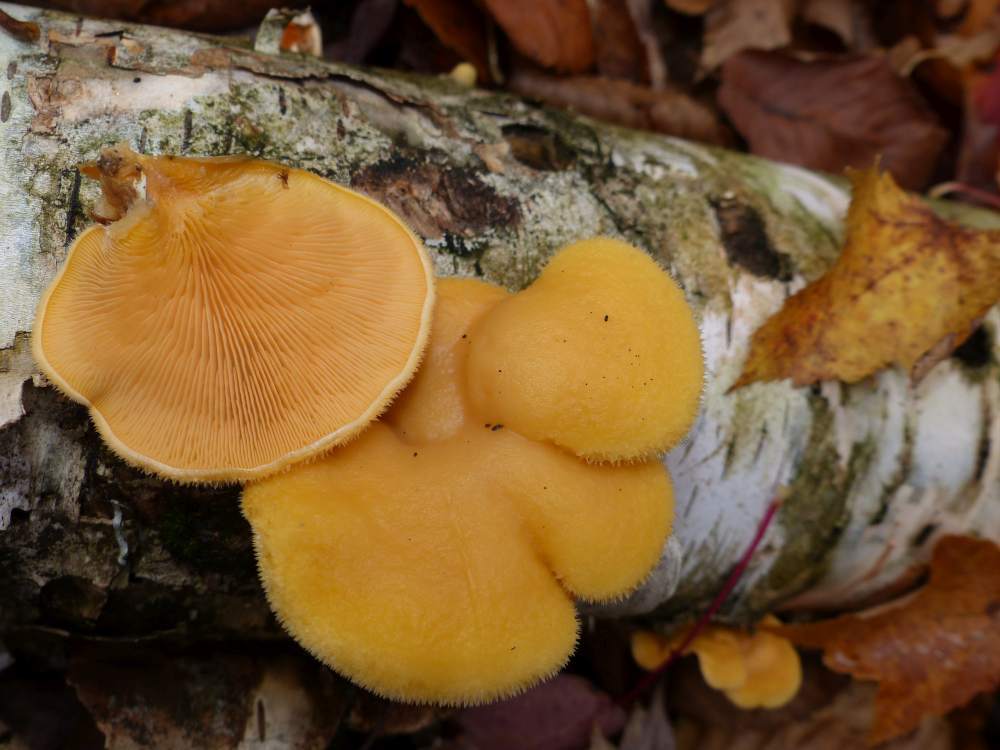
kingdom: Fungi
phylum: Basidiomycota
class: Agaricomycetes
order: Agaricales
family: Phyllotopsidaceae
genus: Phyllotopsis
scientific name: Phyllotopsis nidulans
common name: Orange mock oyster
